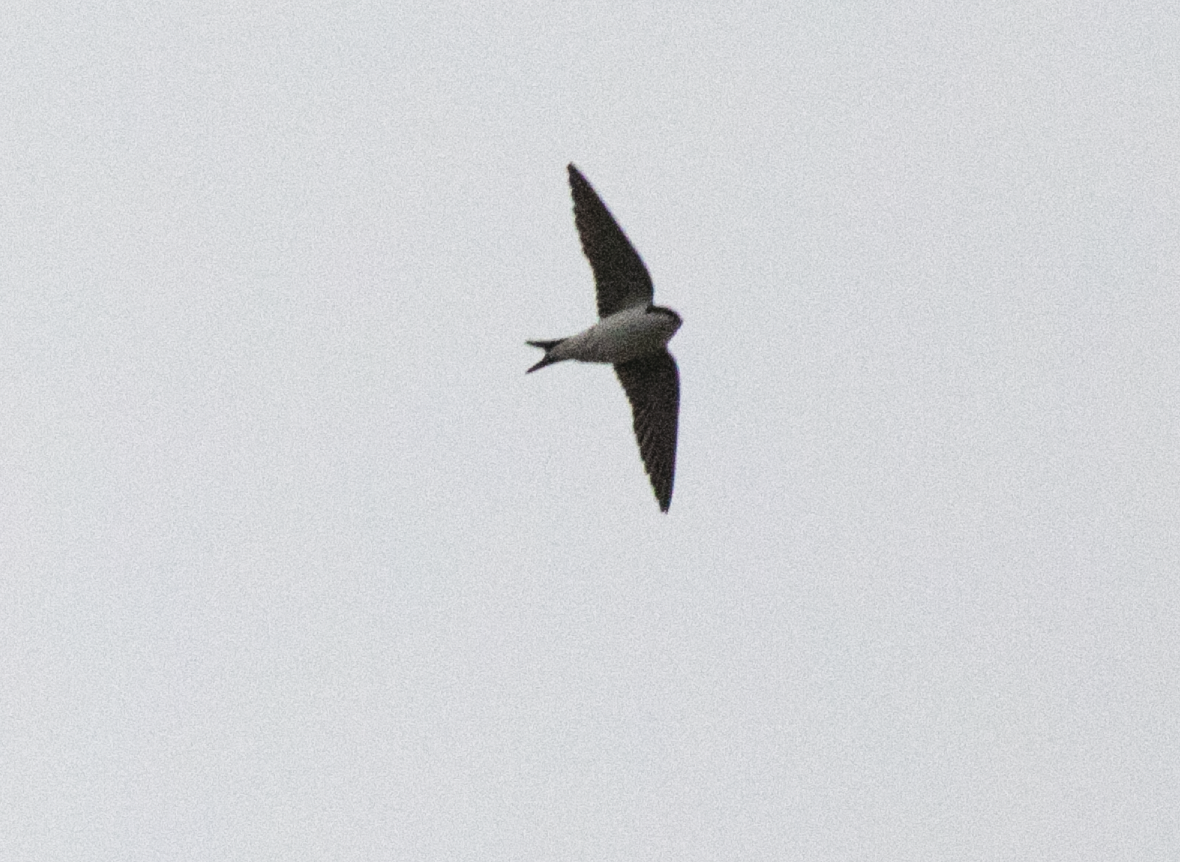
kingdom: Animalia
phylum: Chordata
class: Aves
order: Passeriformes
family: Hirundinidae
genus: Delichon
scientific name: Delichon urbicum
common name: Common house martin
